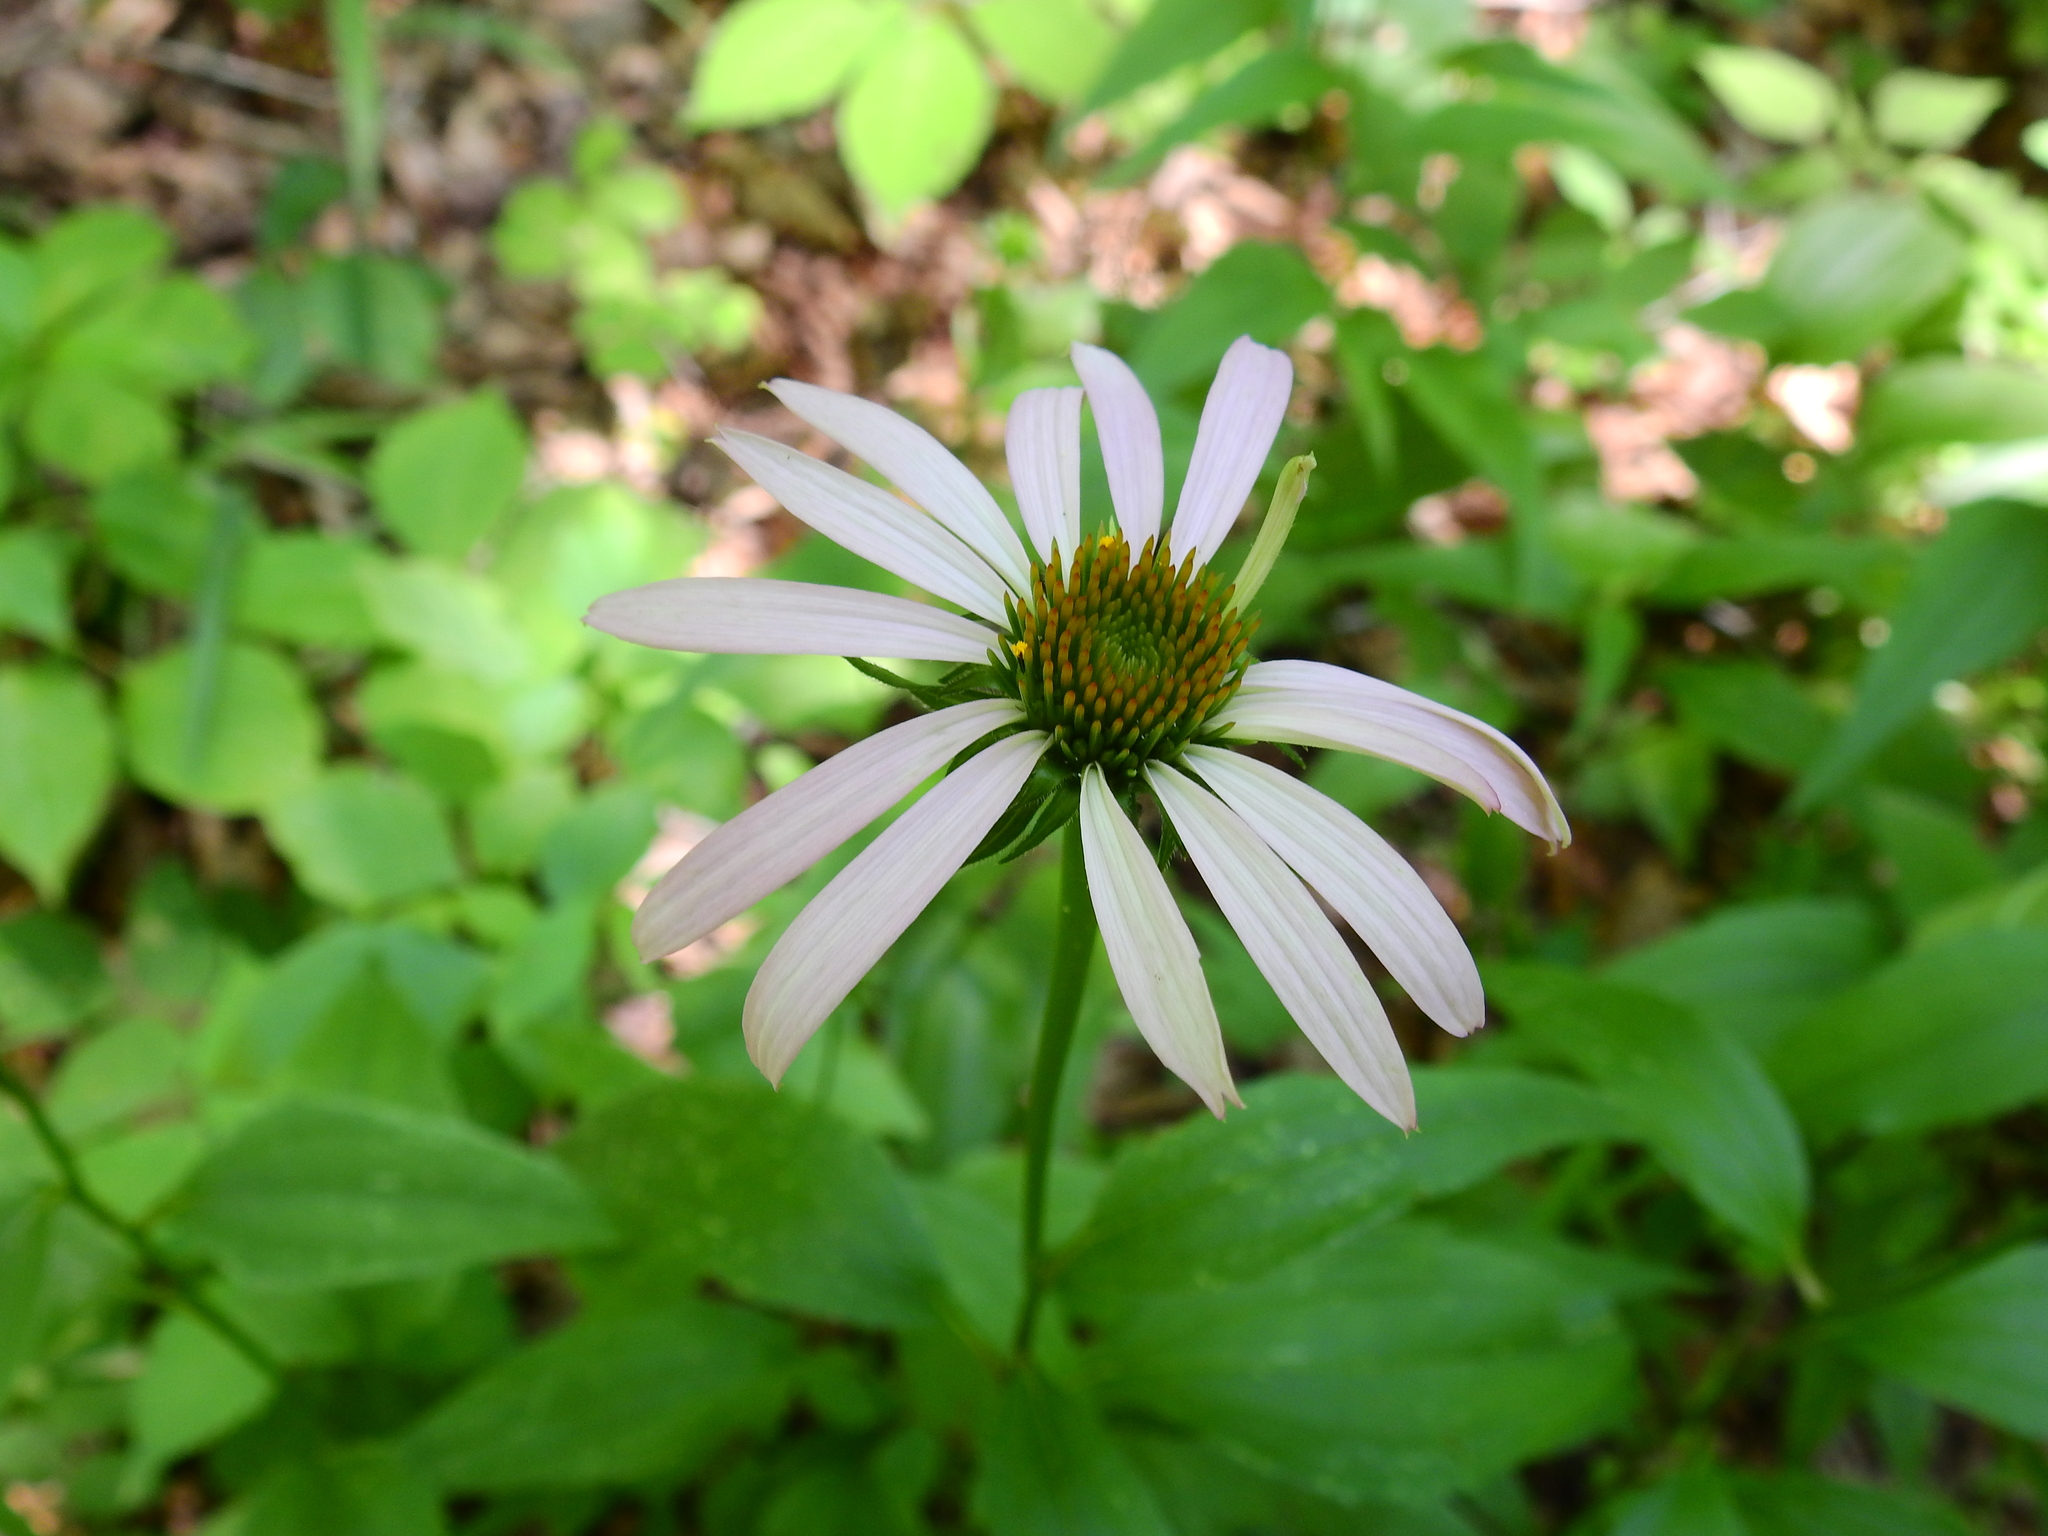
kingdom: Plantae
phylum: Tracheophyta
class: Magnoliopsida
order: Asterales
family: Asteraceae
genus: Echinacea
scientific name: Echinacea purpurea
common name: Broad-leaved purple coneflower
